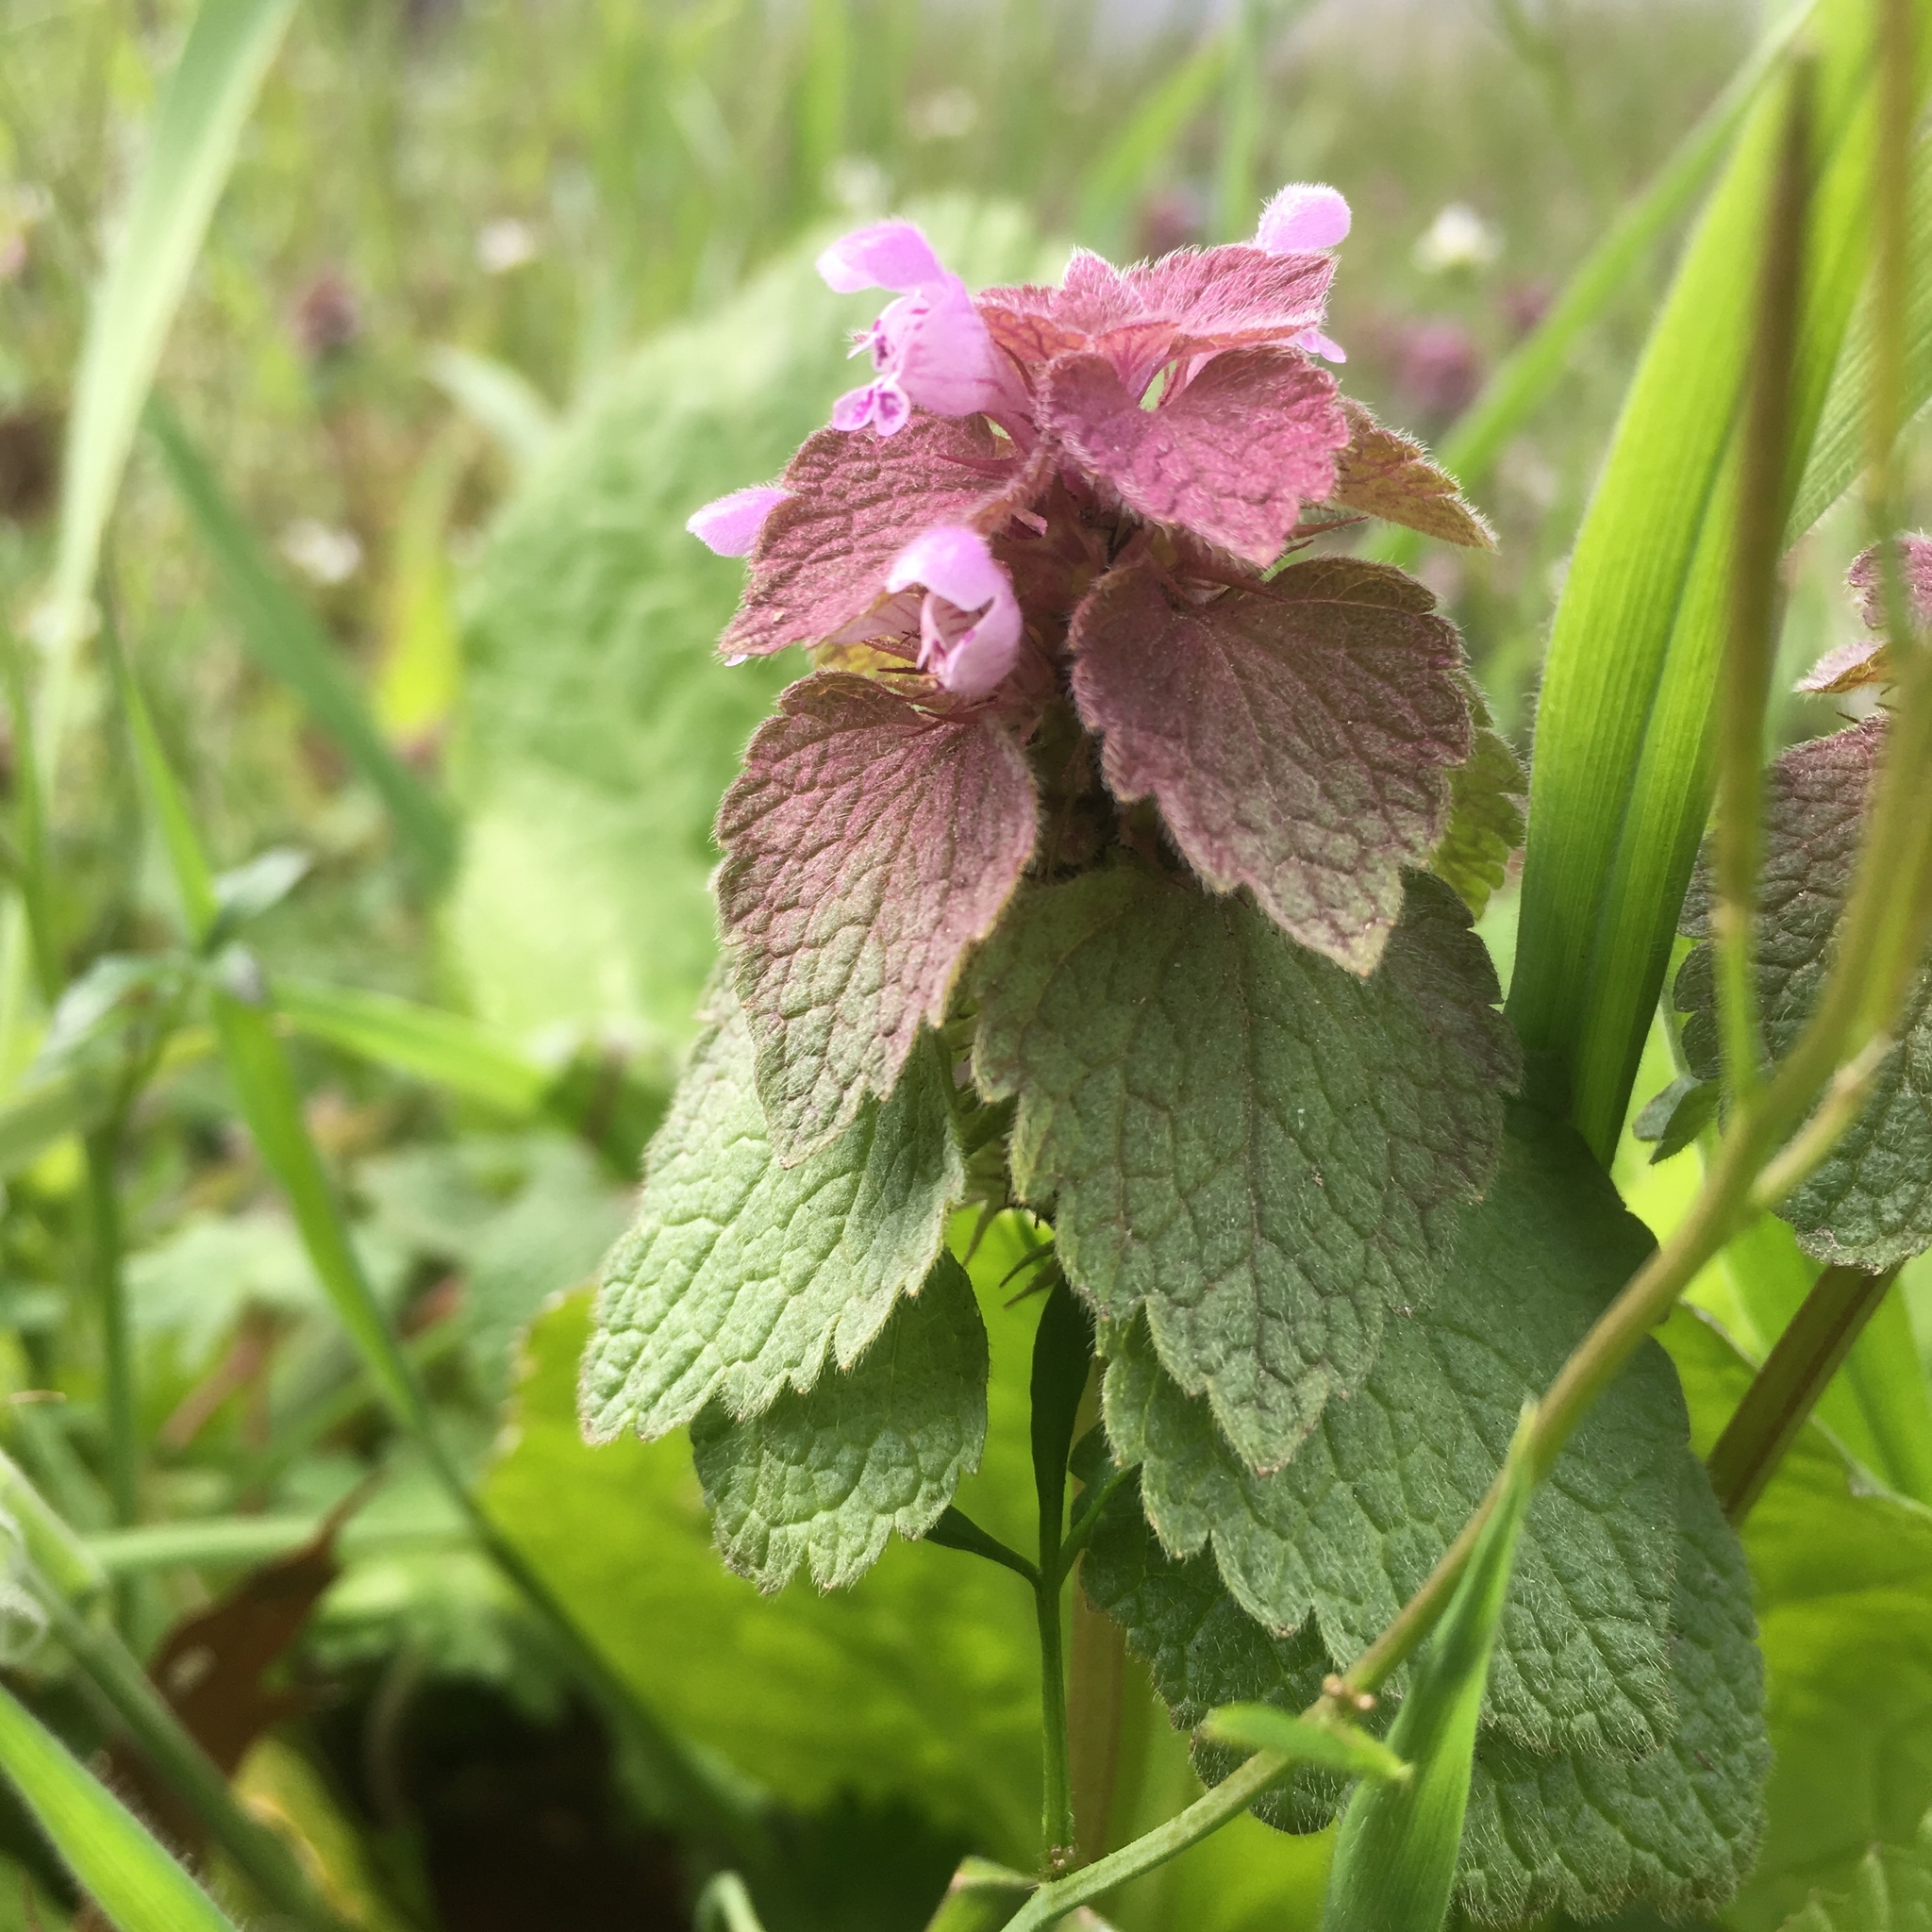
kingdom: Plantae
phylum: Tracheophyta
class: Magnoliopsida
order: Lamiales
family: Lamiaceae
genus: Lamium
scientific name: Lamium purpureum
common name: Red dead-nettle
